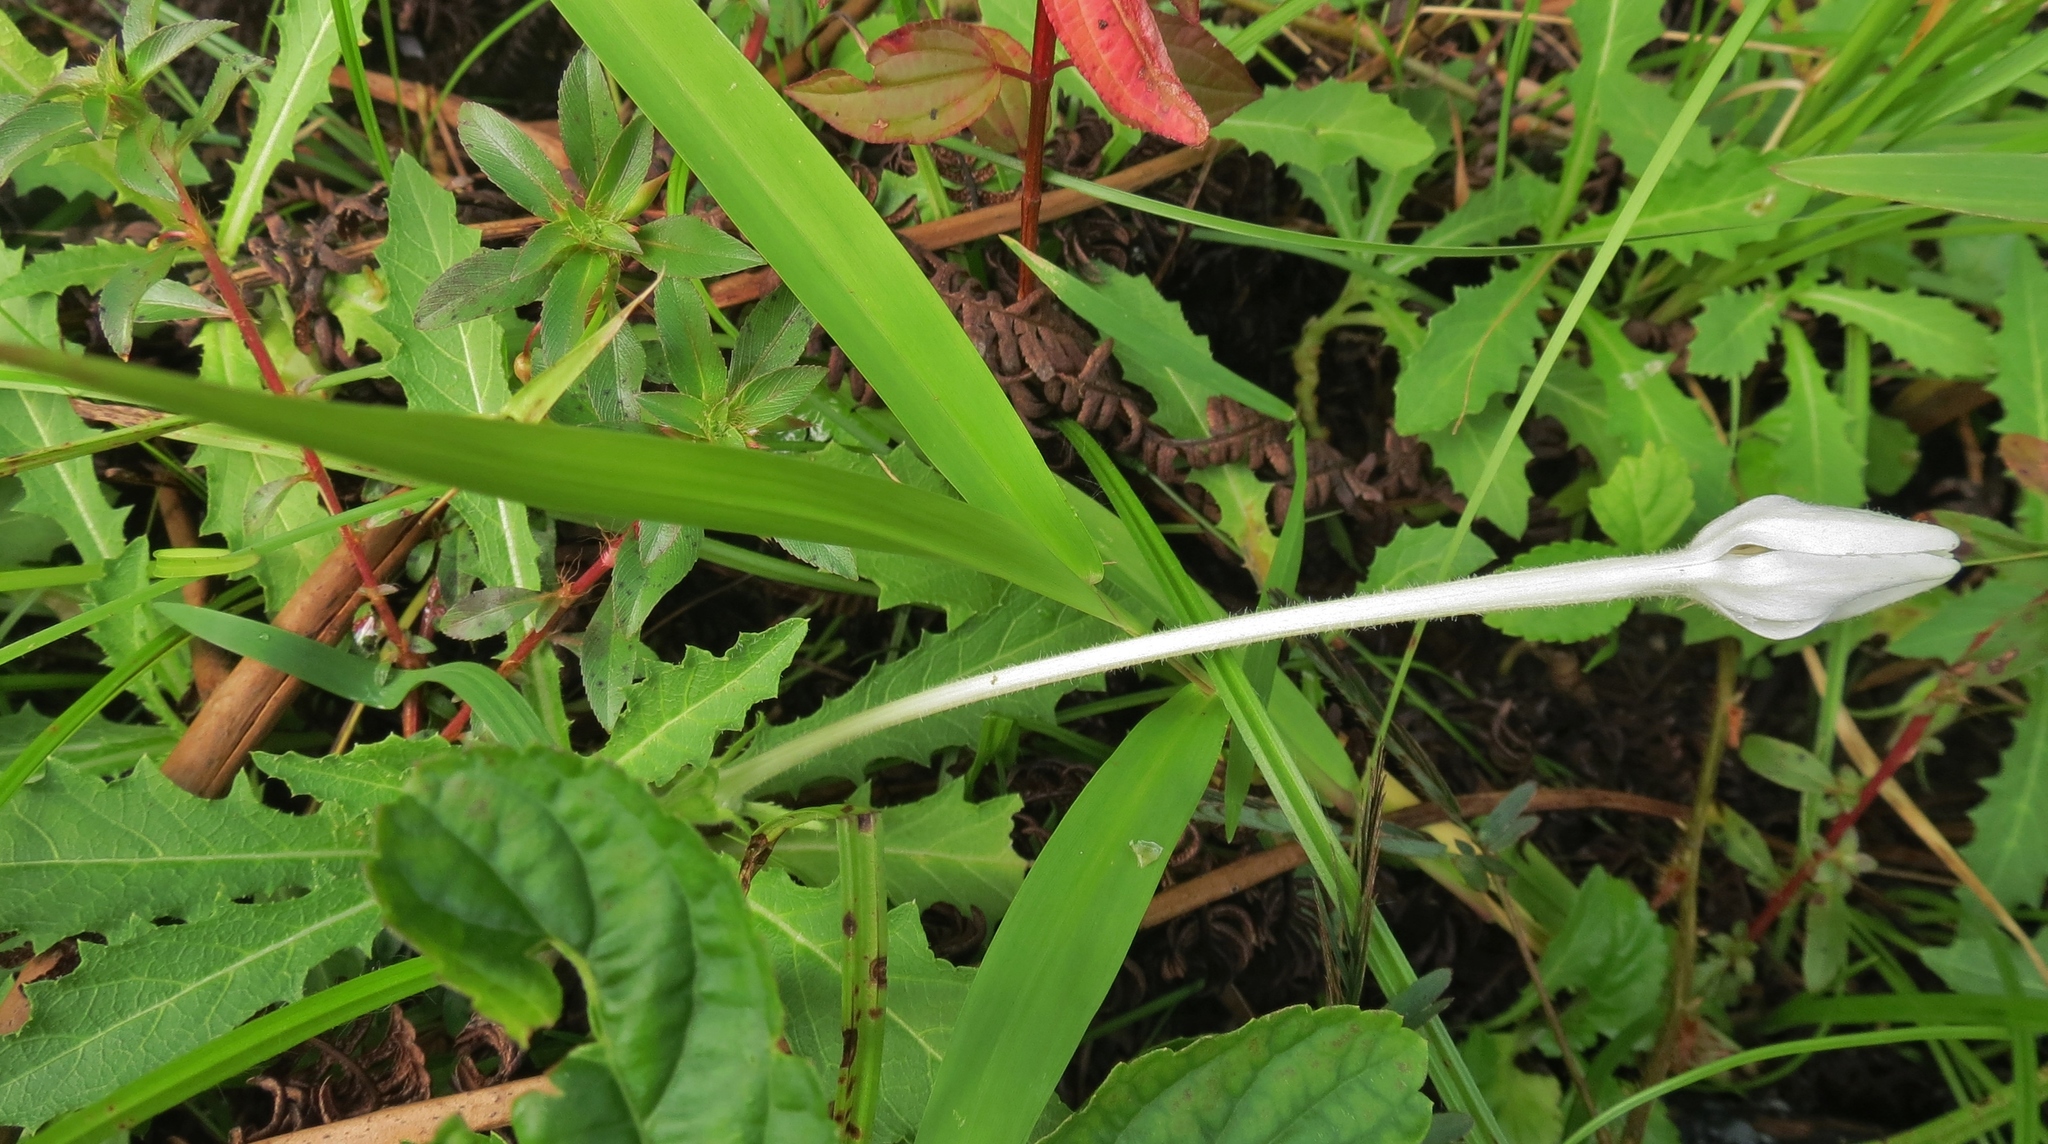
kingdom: Plantae
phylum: Tracheophyta
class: Magnoliopsida
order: Asterales
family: Campanulaceae
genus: Hippobroma
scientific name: Hippobroma longiflora
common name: Madamfate
